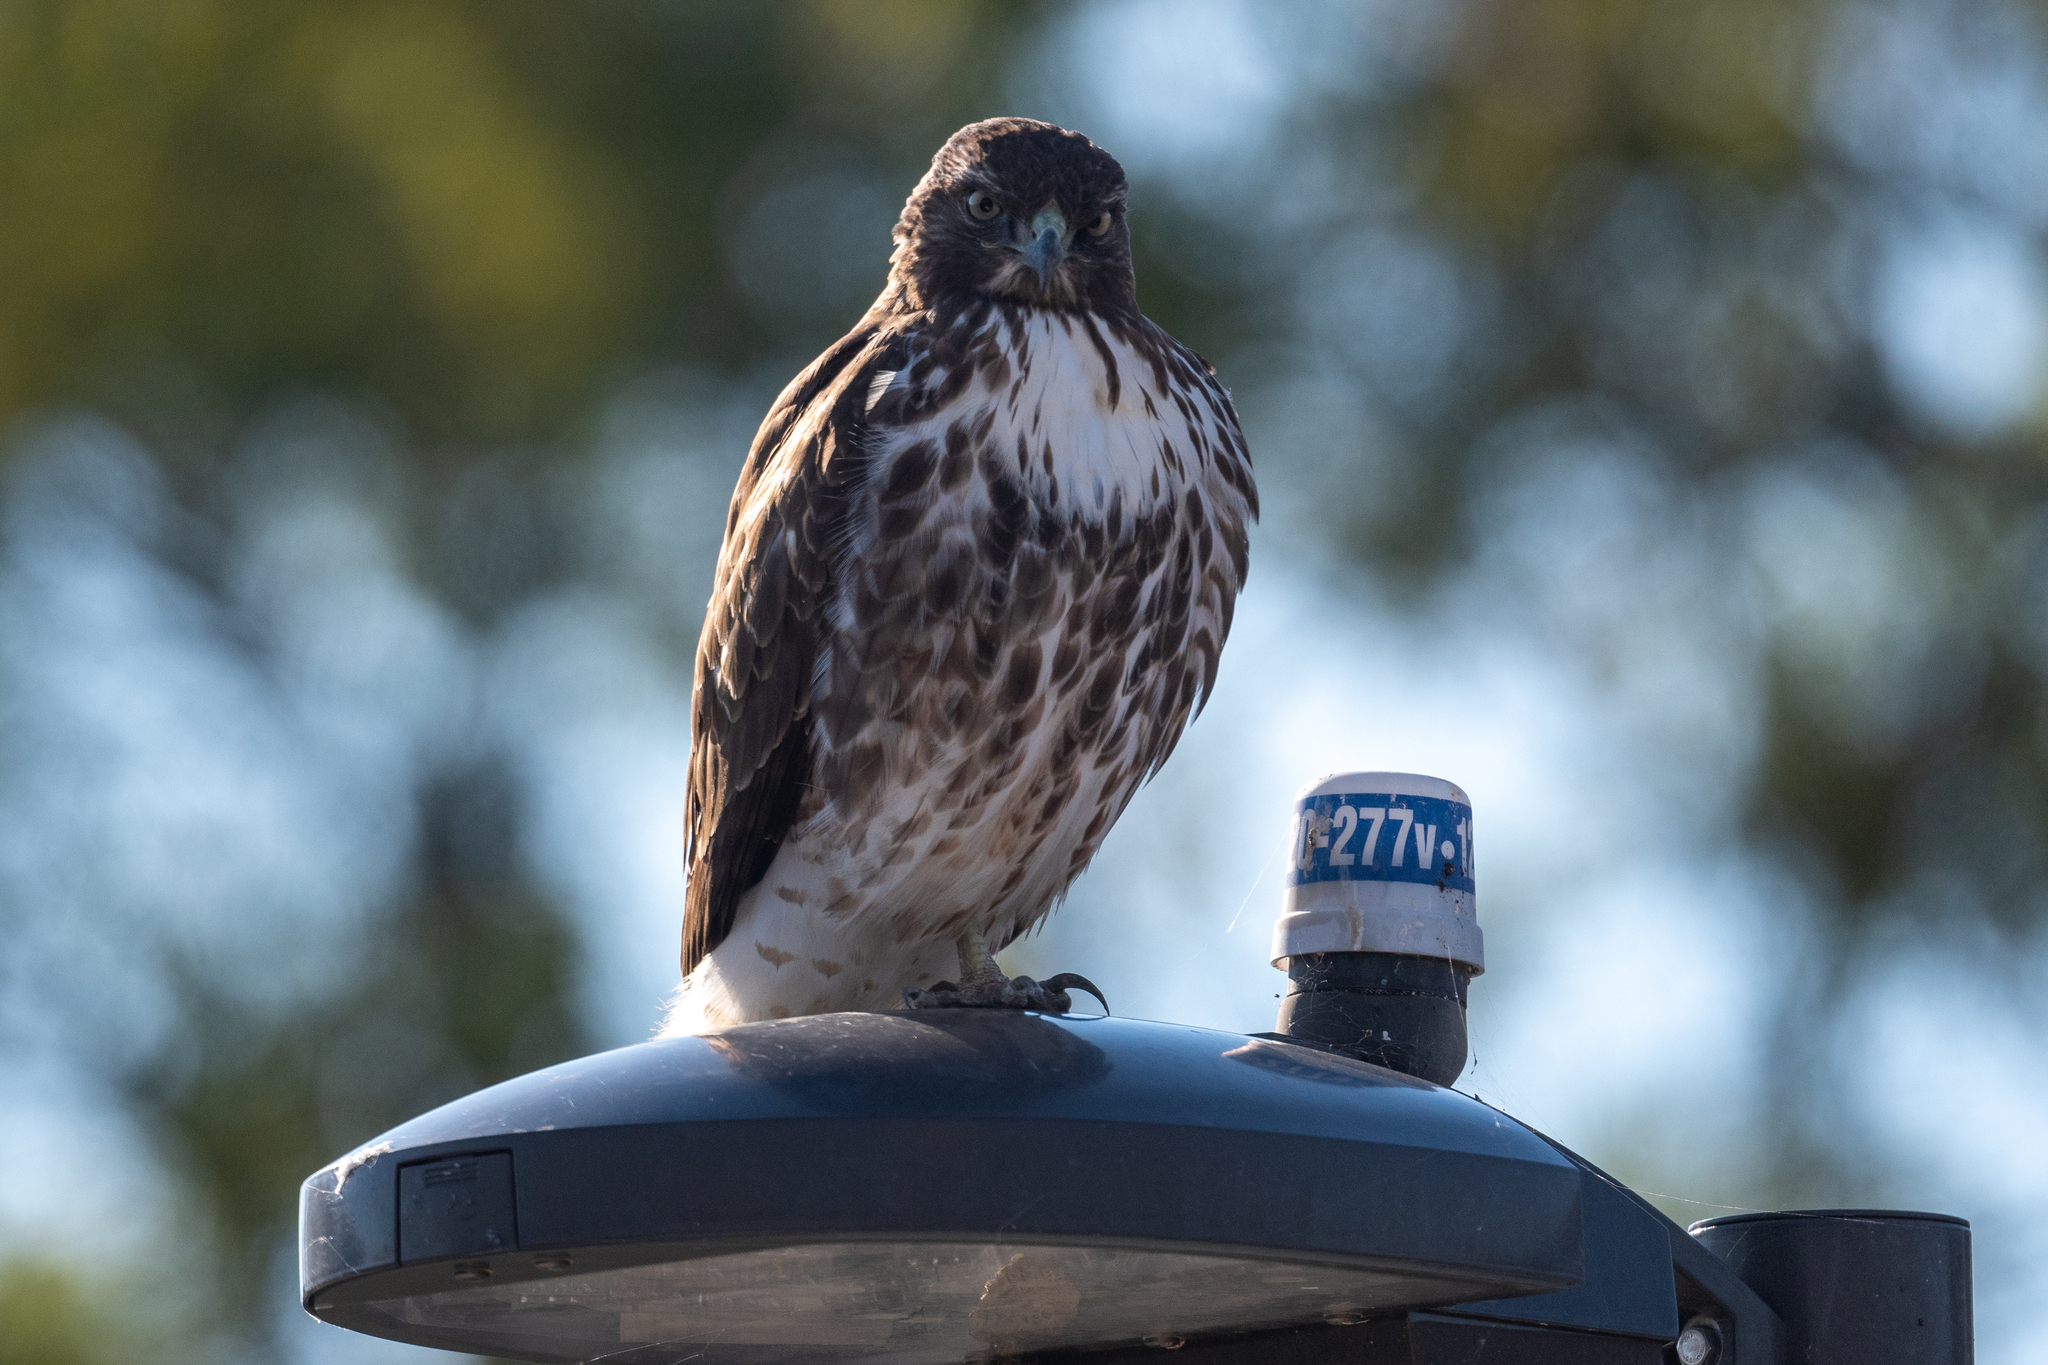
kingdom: Animalia
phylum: Chordata
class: Aves
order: Accipitriformes
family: Accipitridae
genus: Buteo
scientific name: Buteo jamaicensis
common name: Red-tailed hawk
